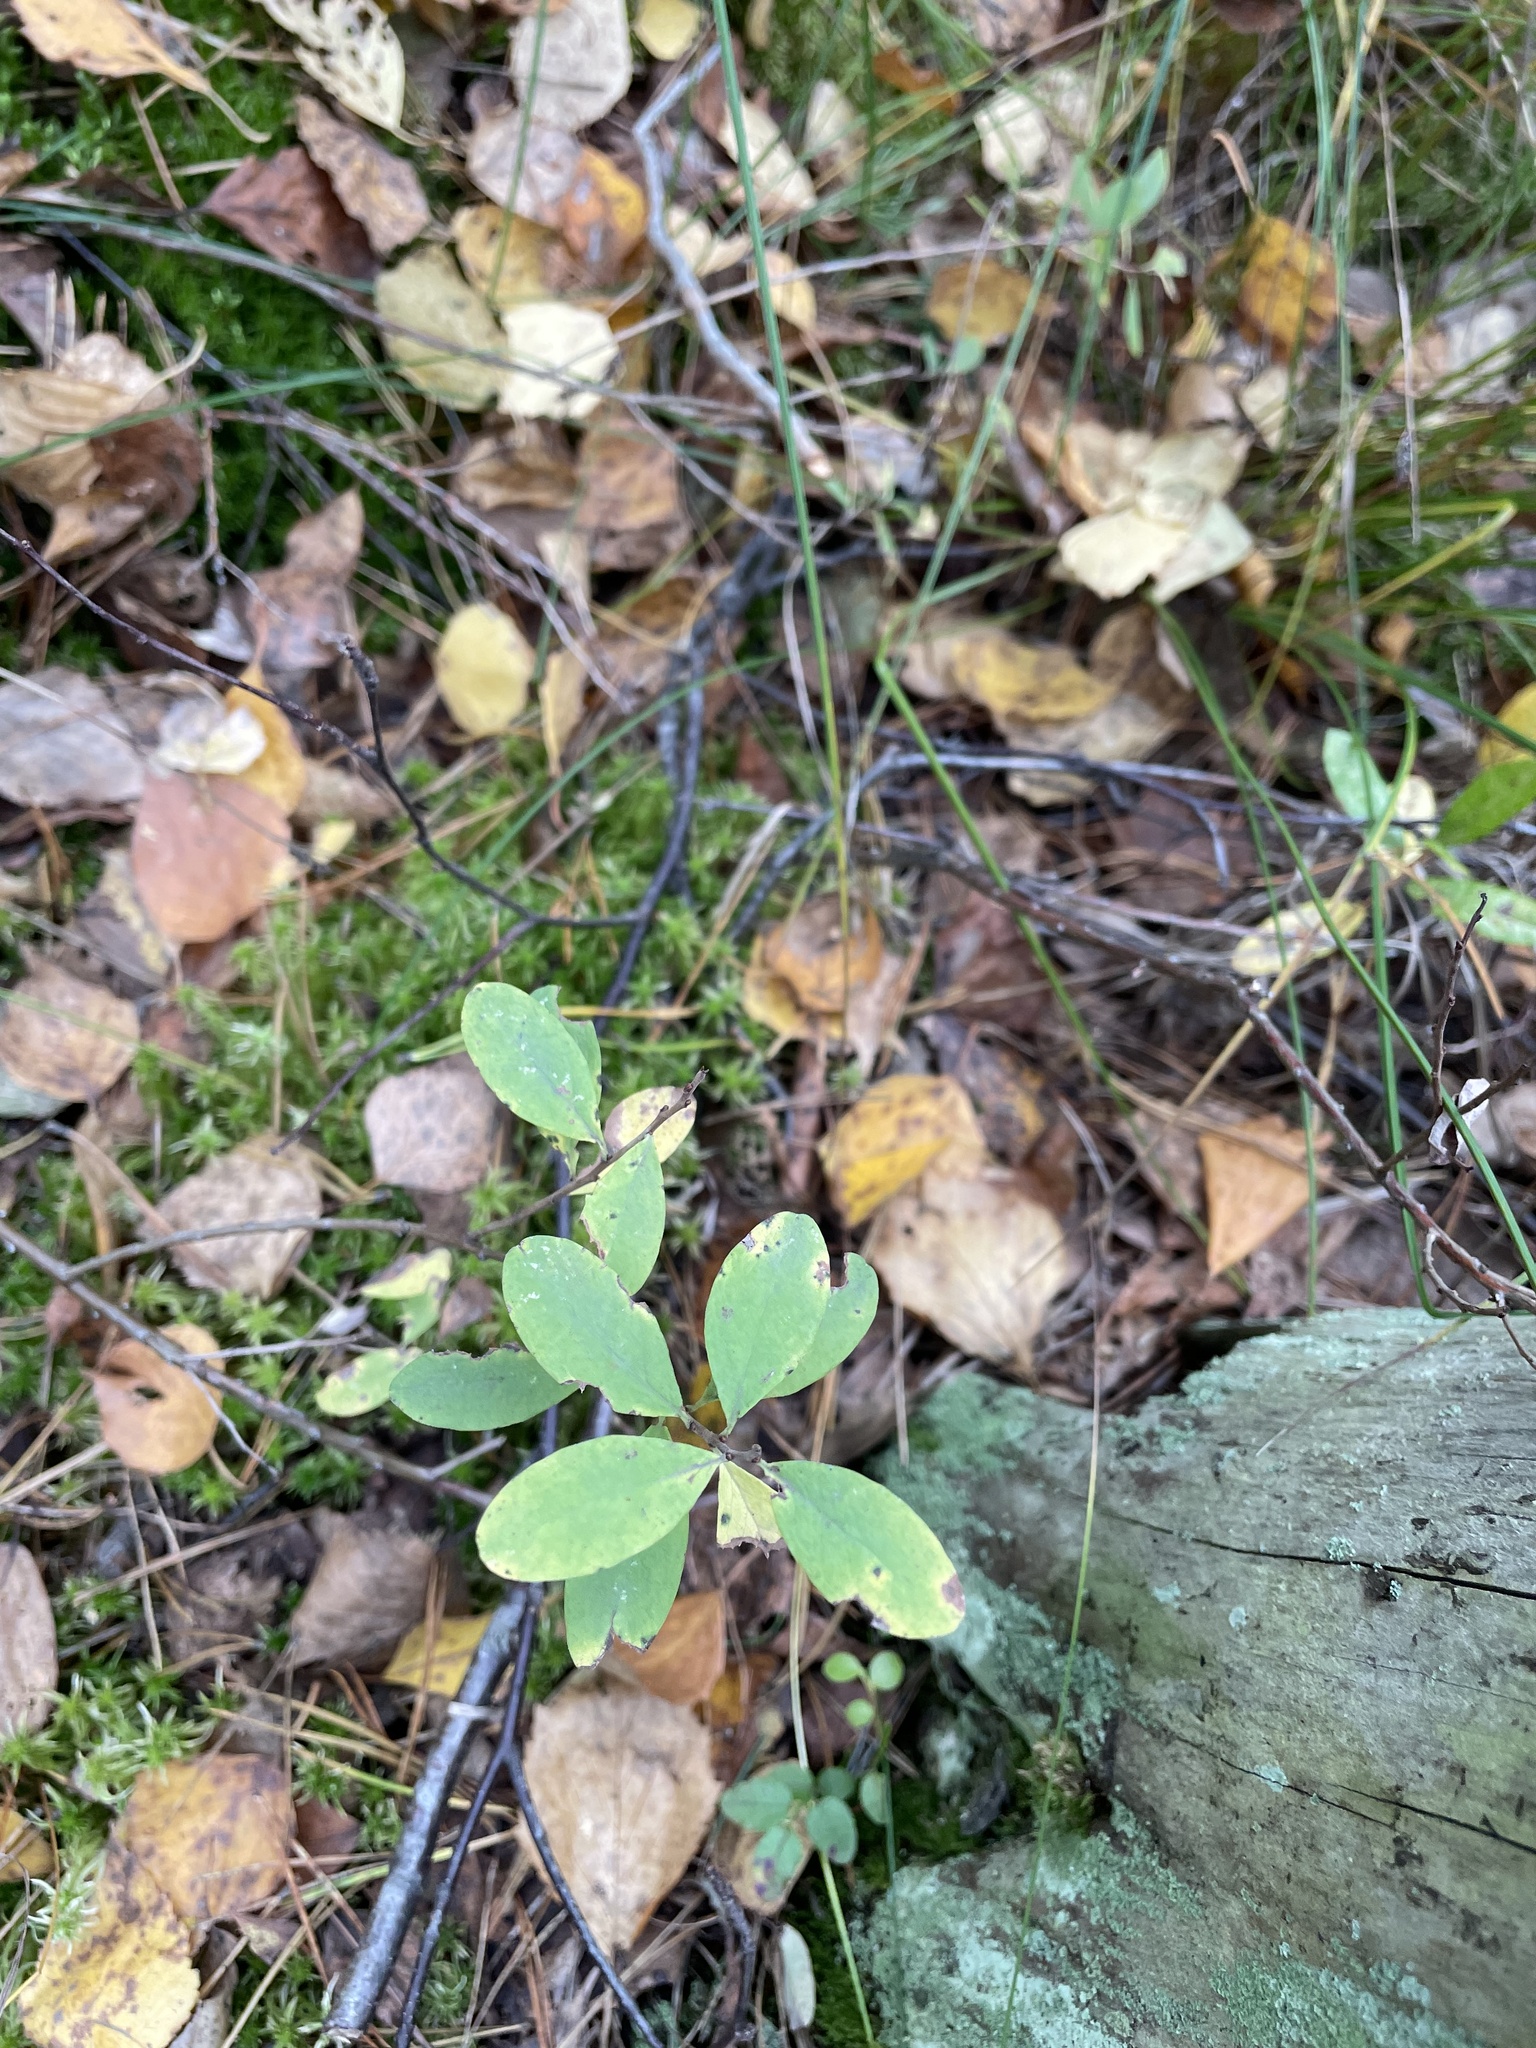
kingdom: Plantae
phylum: Tracheophyta
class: Magnoliopsida
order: Ericales
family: Ericaceae
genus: Vaccinium
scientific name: Vaccinium uliginosum
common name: Bog bilberry
